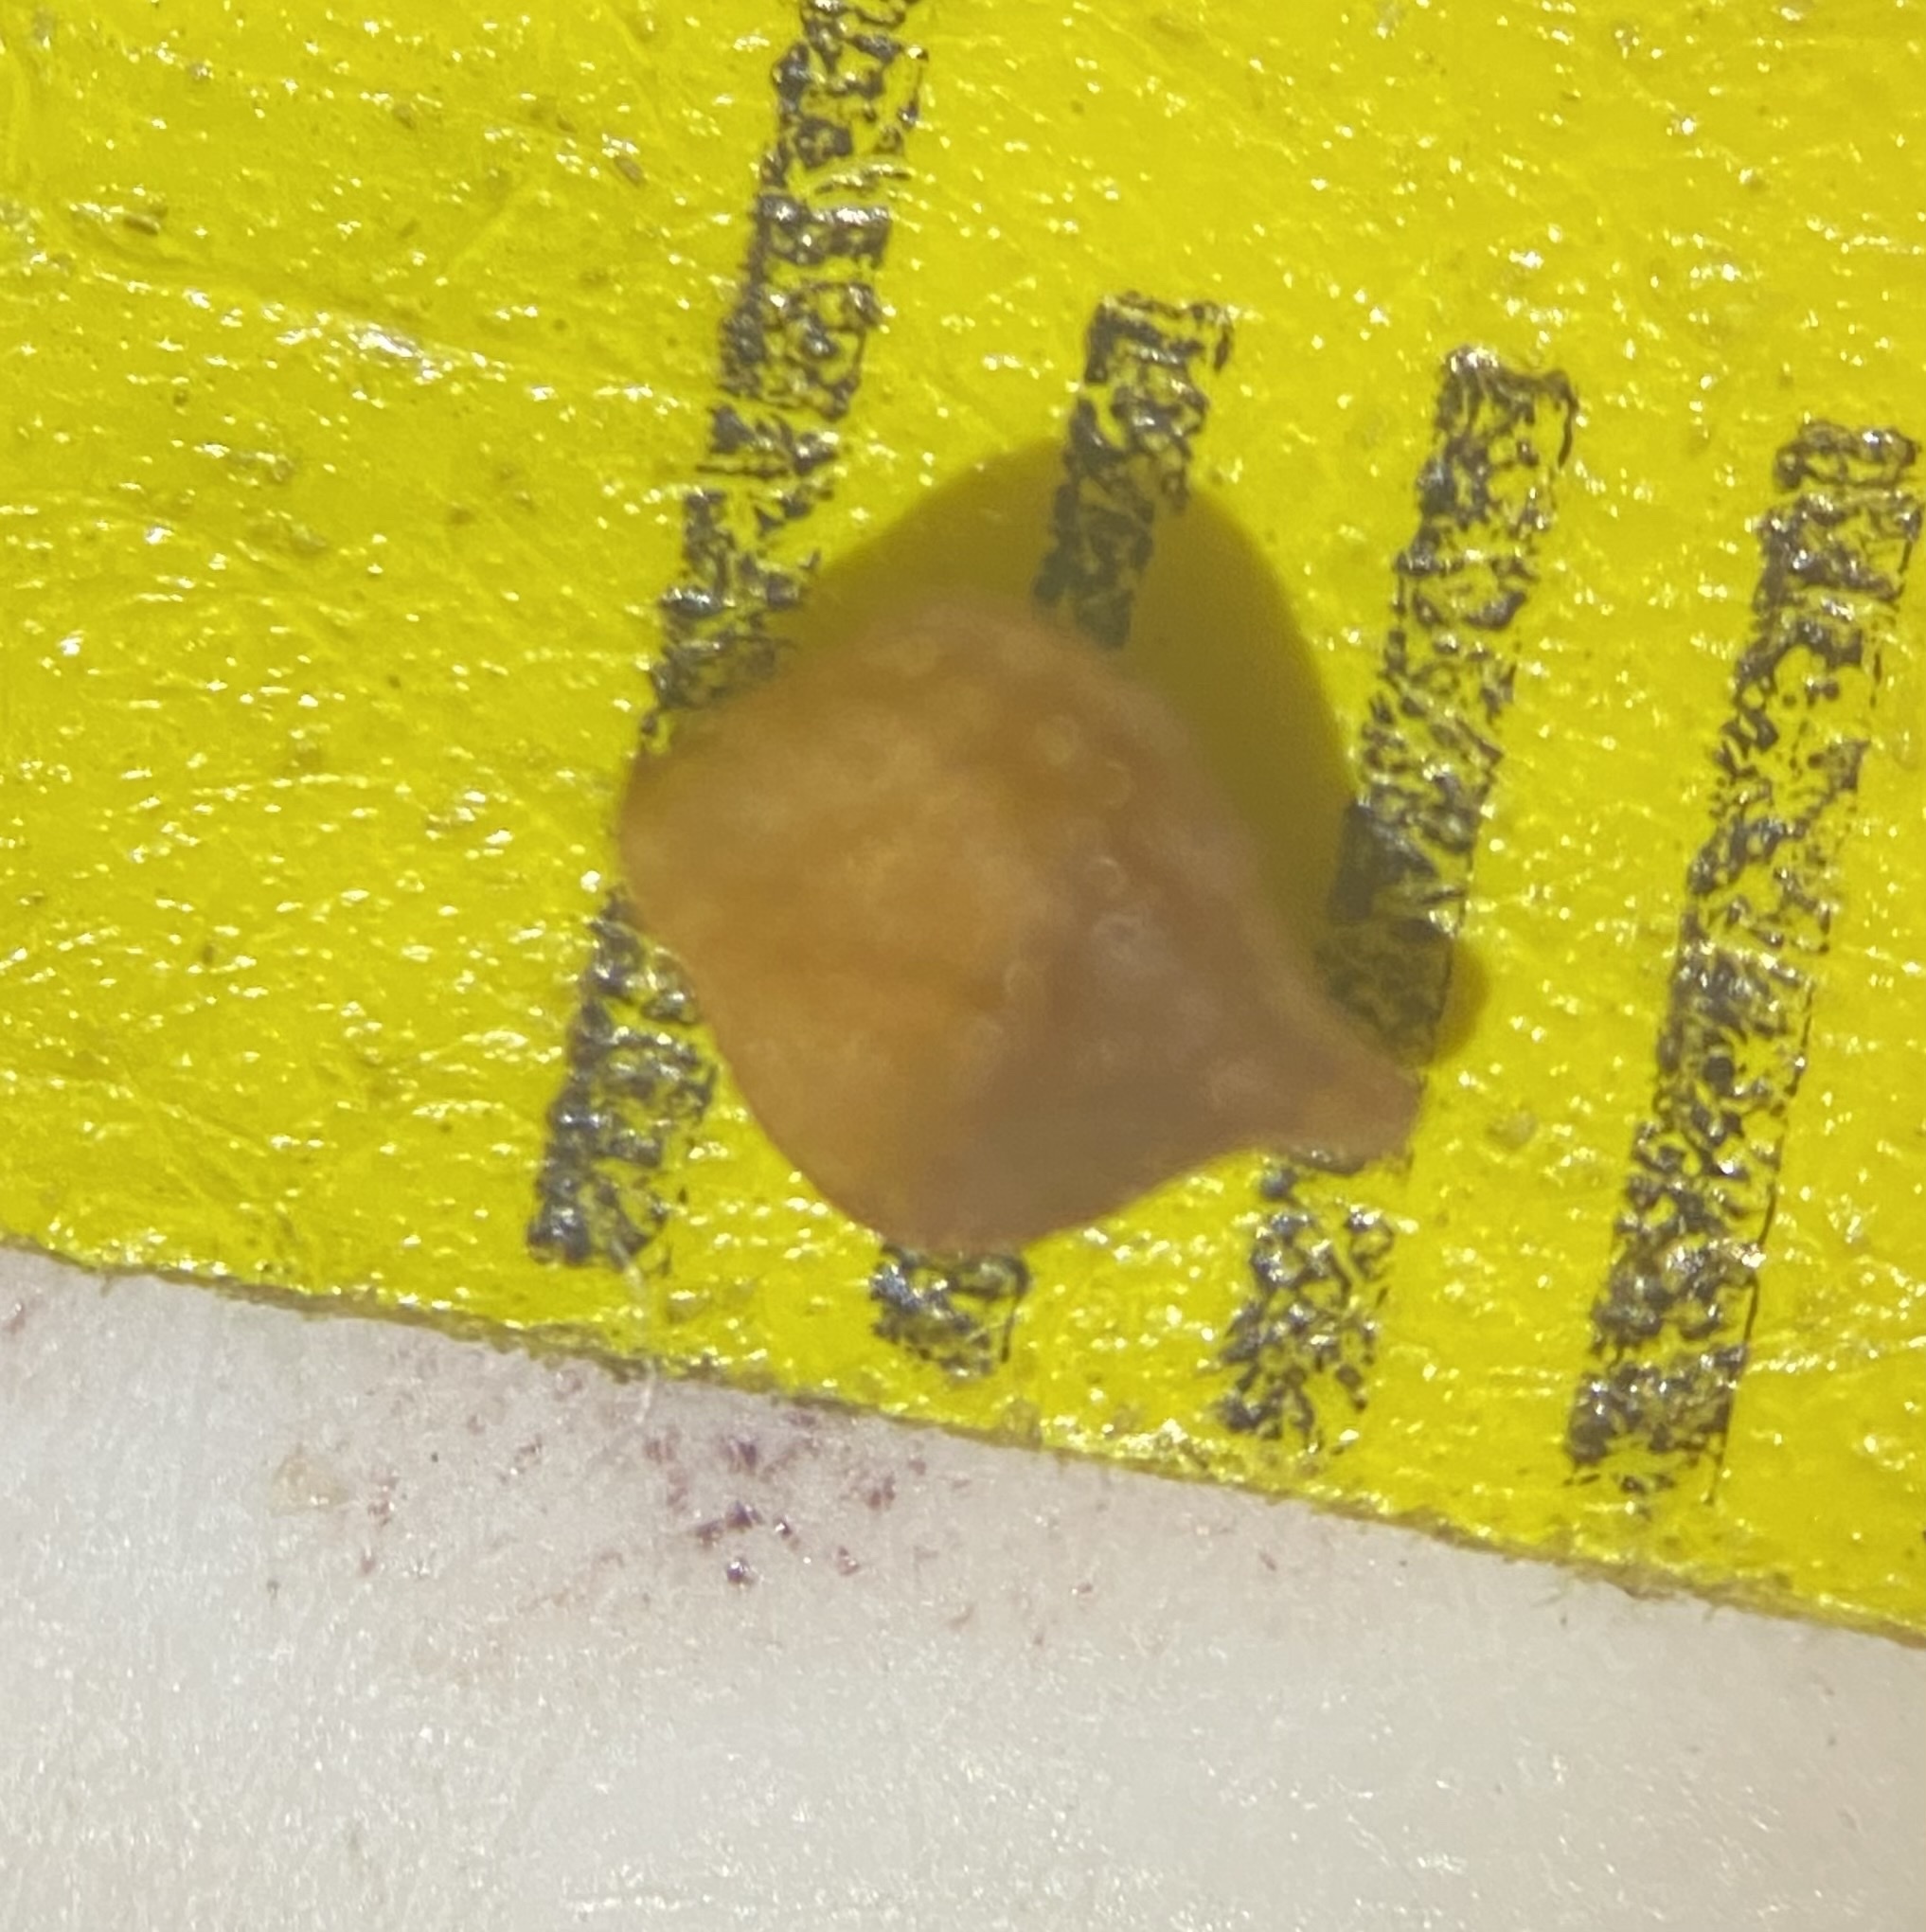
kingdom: Plantae
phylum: Tracheophyta
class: Liliopsida
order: Poales
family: Cyperaceae
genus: Carex
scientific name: Carex shortiana
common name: Short's sedge
